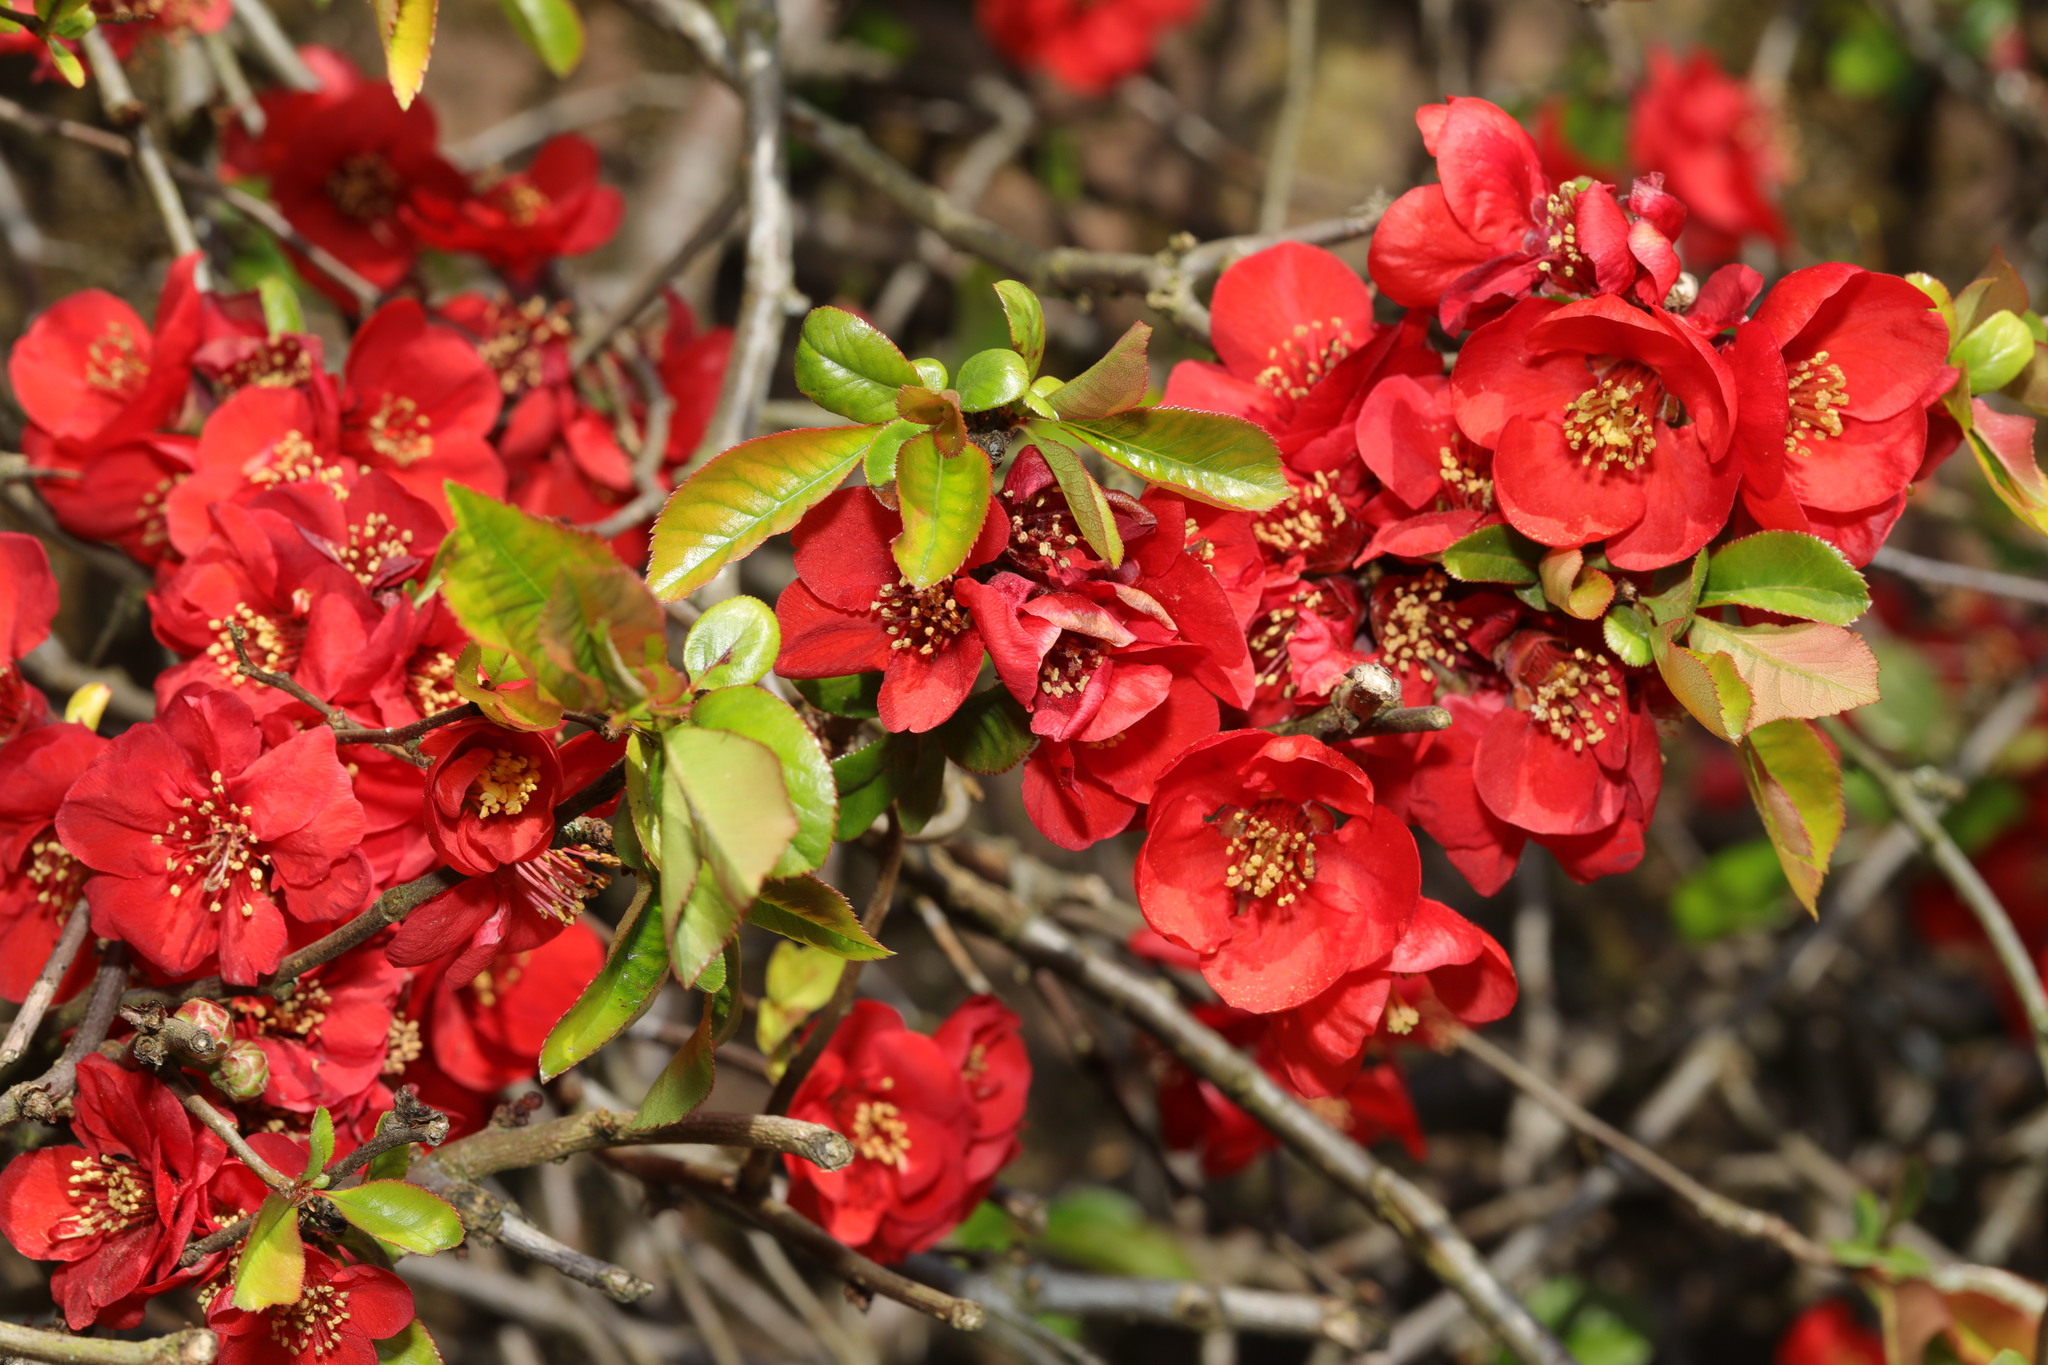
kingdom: Plantae
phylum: Tracheophyta
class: Magnoliopsida
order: Rosales
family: Rosaceae
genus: Chaenomeles
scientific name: Chaenomeles speciosa
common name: Japanese quince
